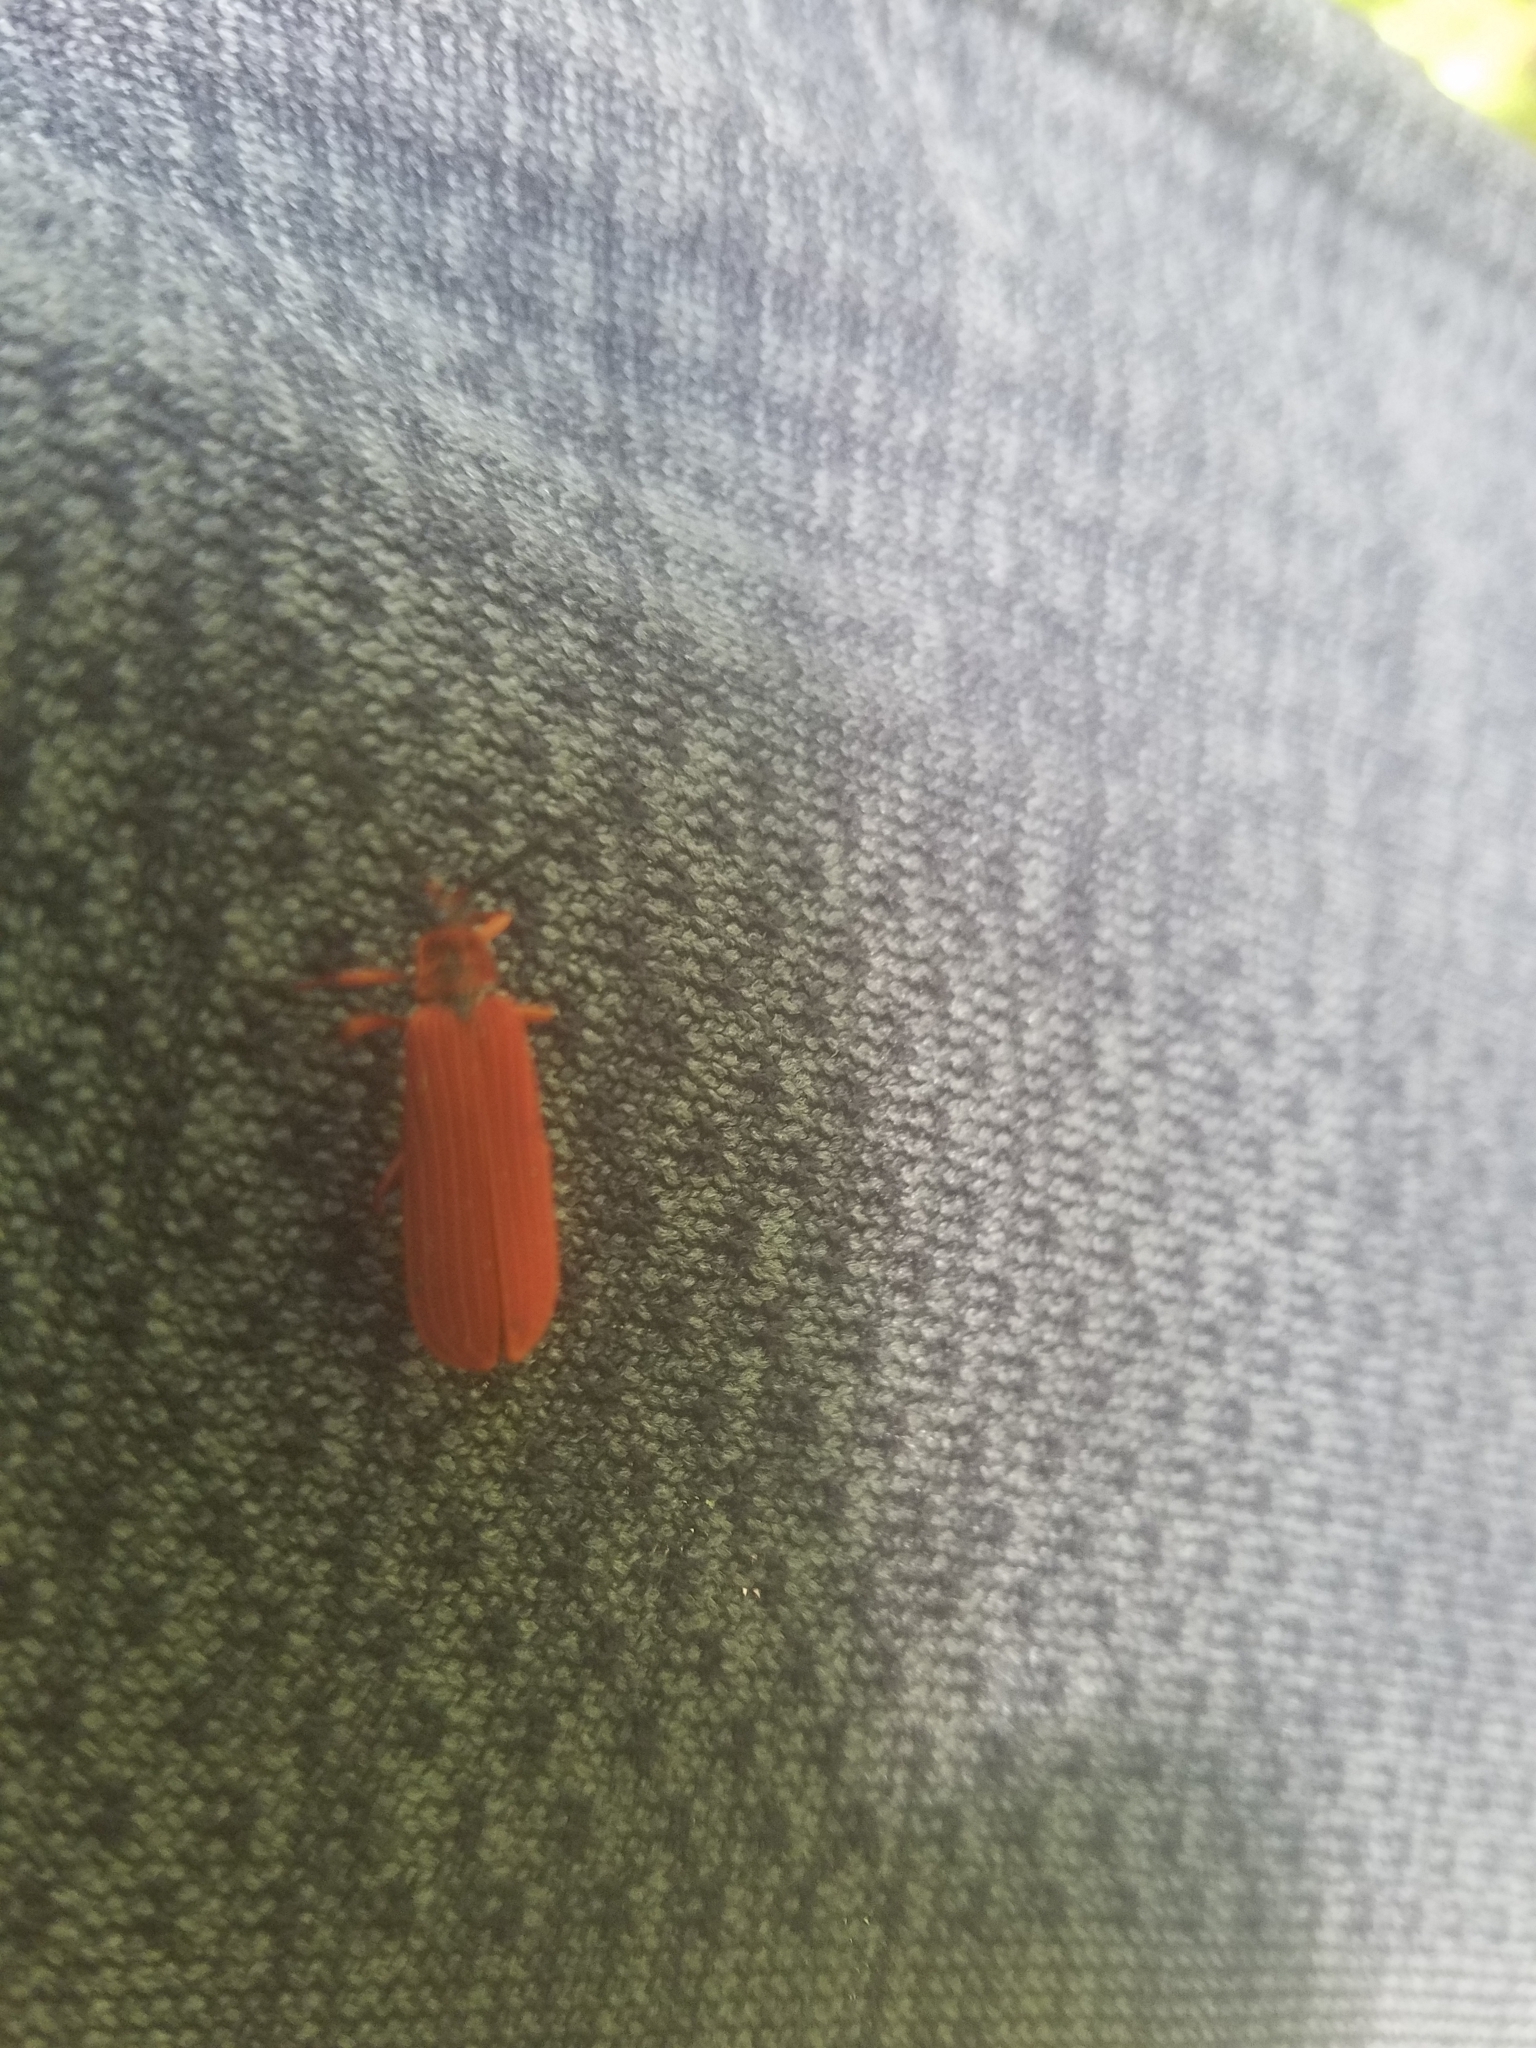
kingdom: Animalia
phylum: Arthropoda
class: Insecta
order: Coleoptera
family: Lycidae
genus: Dictyoptera
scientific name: Dictyoptera simplicipes
